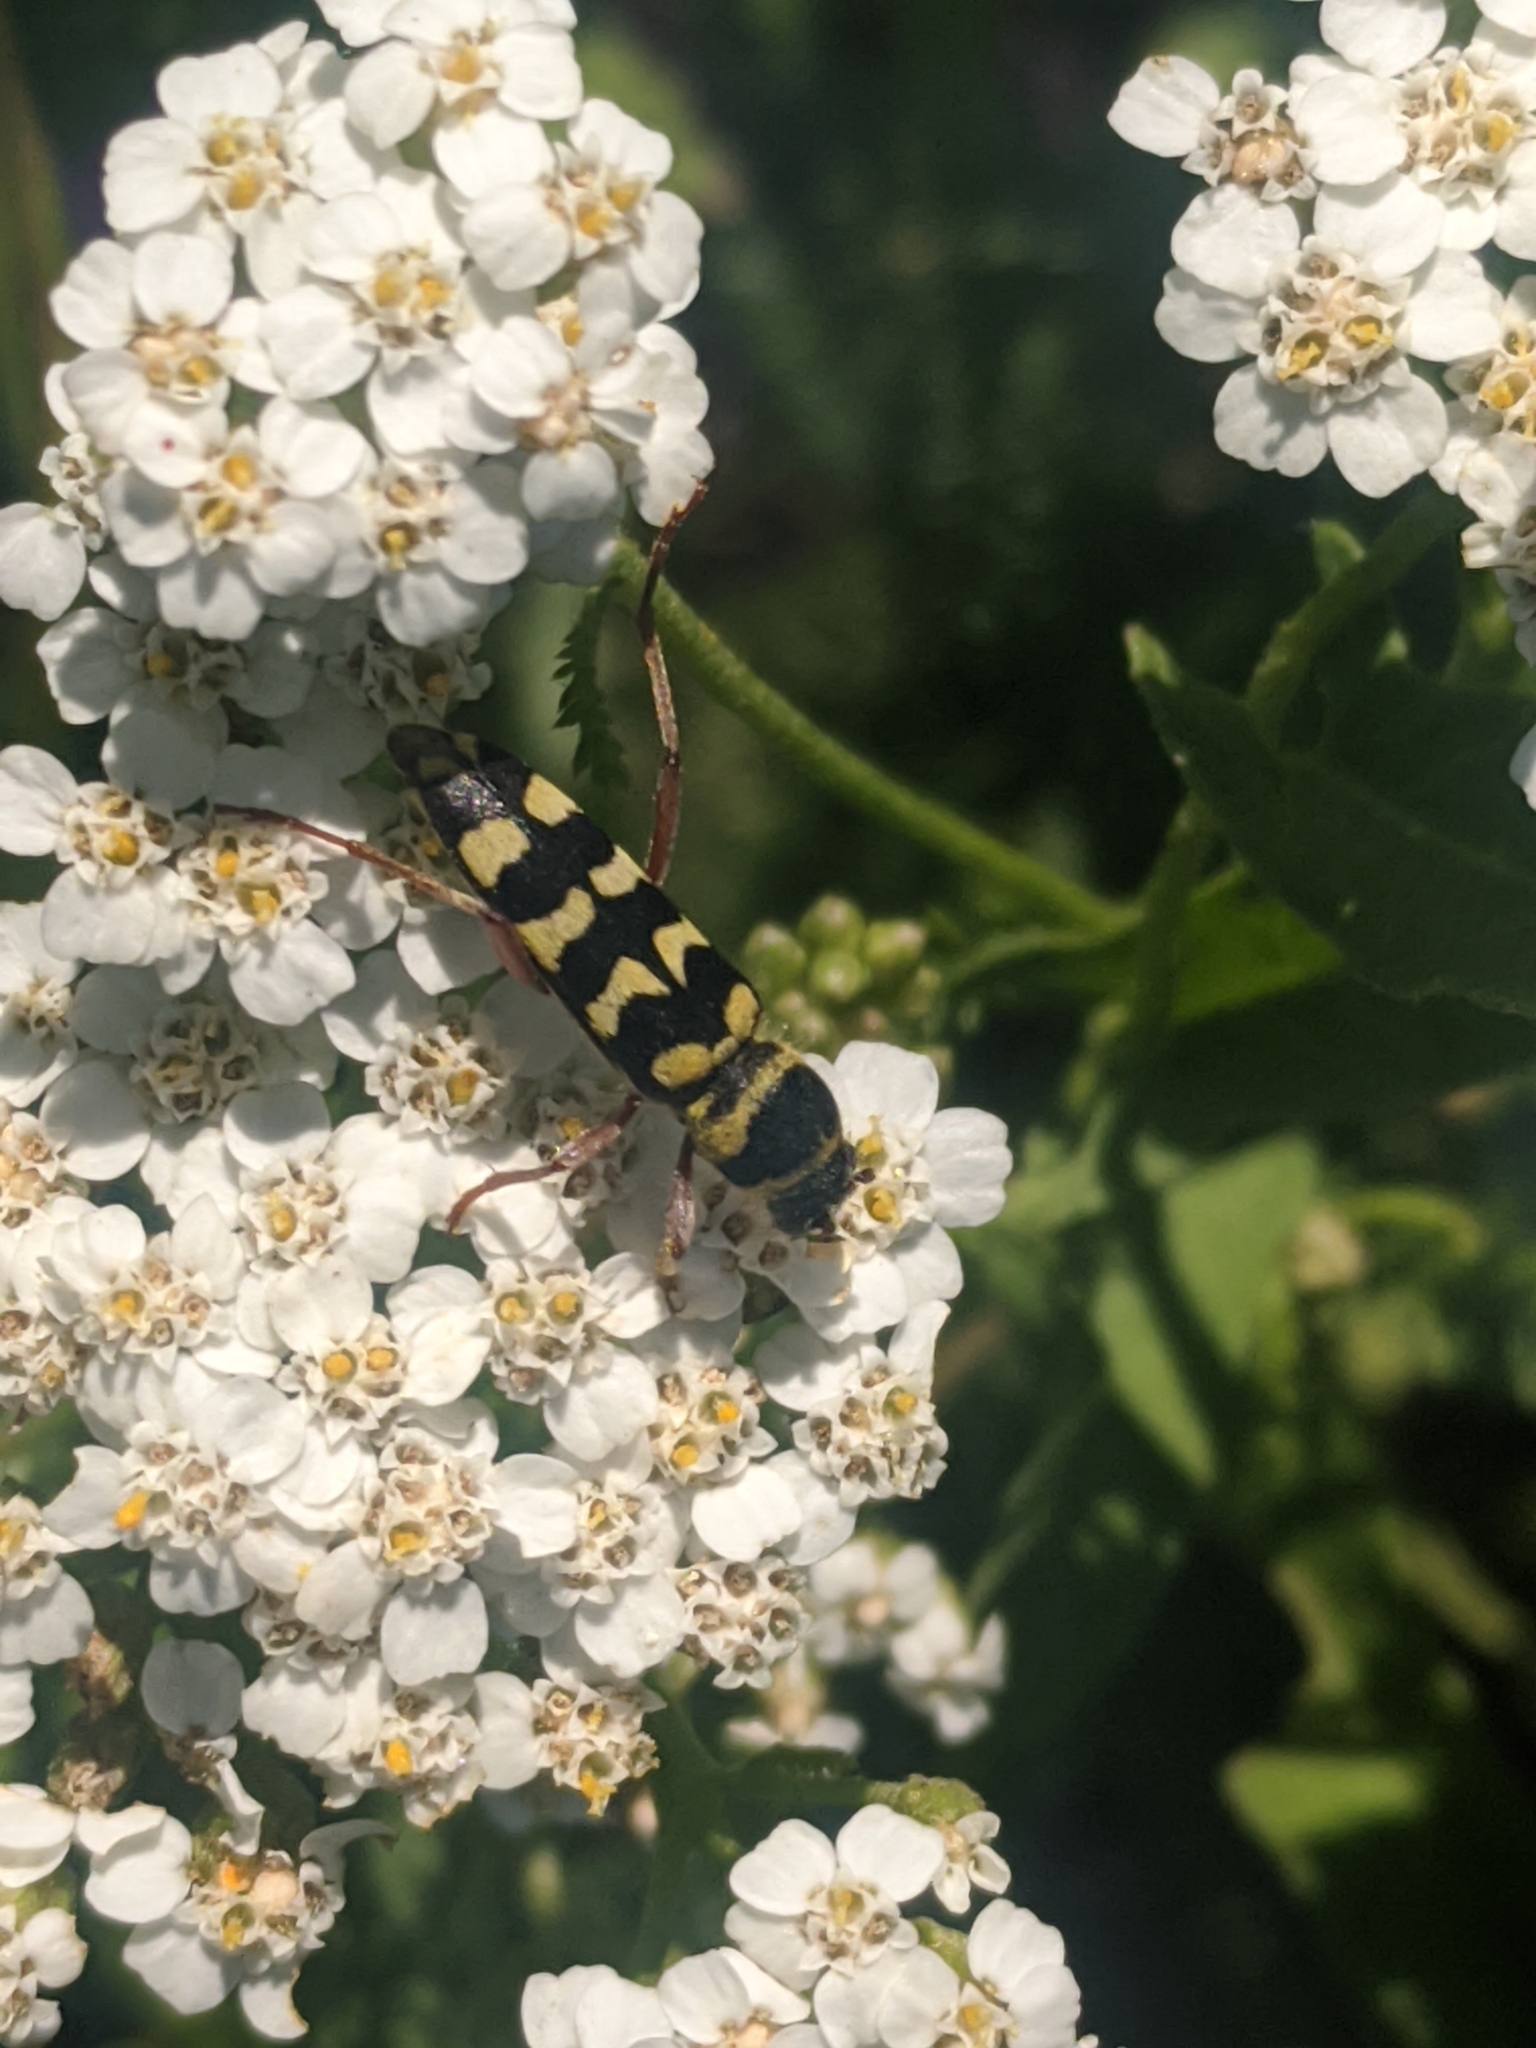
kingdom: Animalia
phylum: Arthropoda
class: Insecta
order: Coleoptera
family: Cerambycidae
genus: Plagionotus
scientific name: Plagionotus floralis
